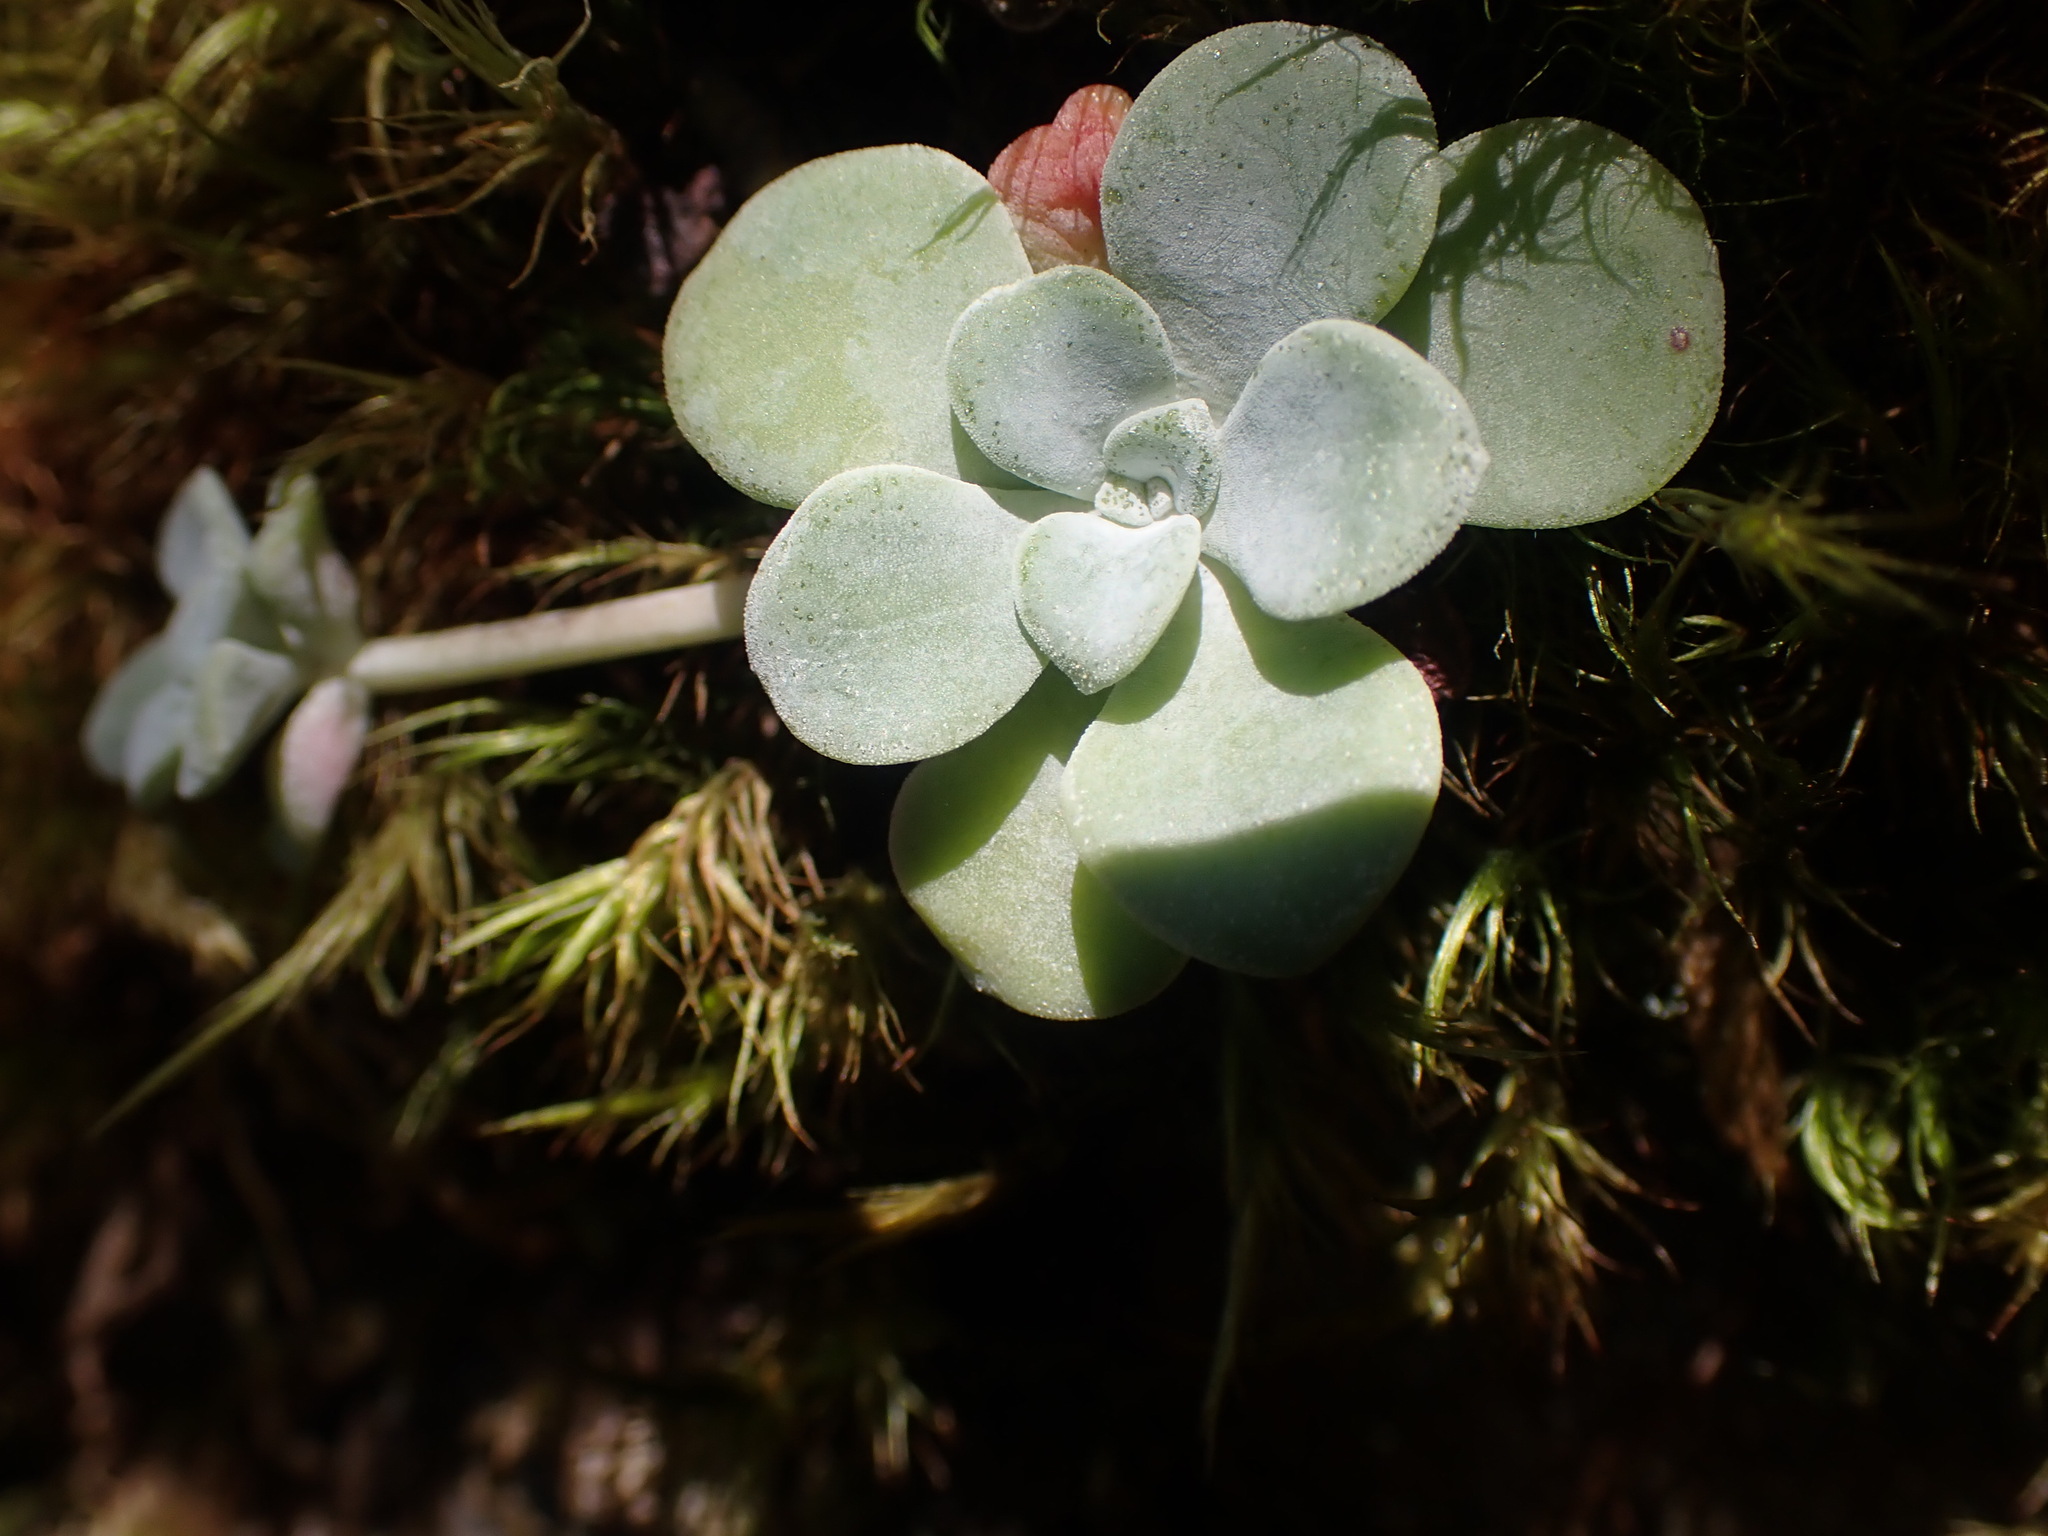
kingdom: Plantae
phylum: Tracheophyta
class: Magnoliopsida
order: Saxifragales
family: Crassulaceae
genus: Sedum
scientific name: Sedum spathulifolium
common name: Colorado stonecrop
